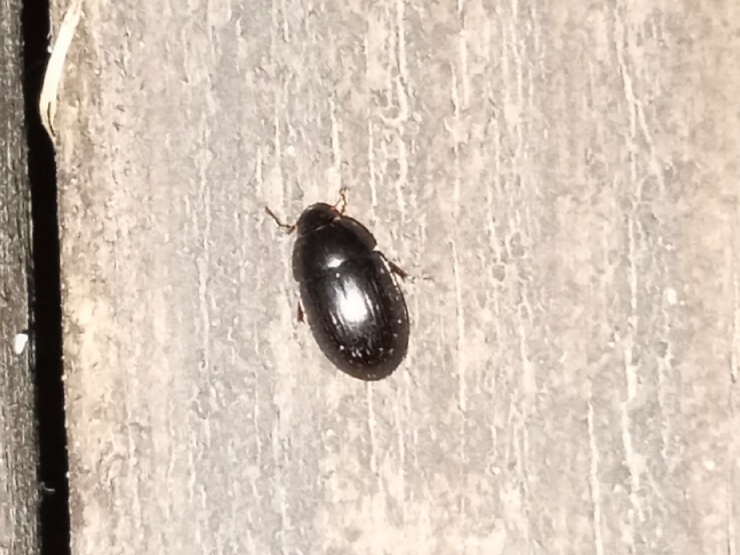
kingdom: Animalia
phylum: Arthropoda
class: Insecta
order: Coleoptera
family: Hydrophilidae
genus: Cymbiodyta
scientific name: Cymbiodyta bifida
